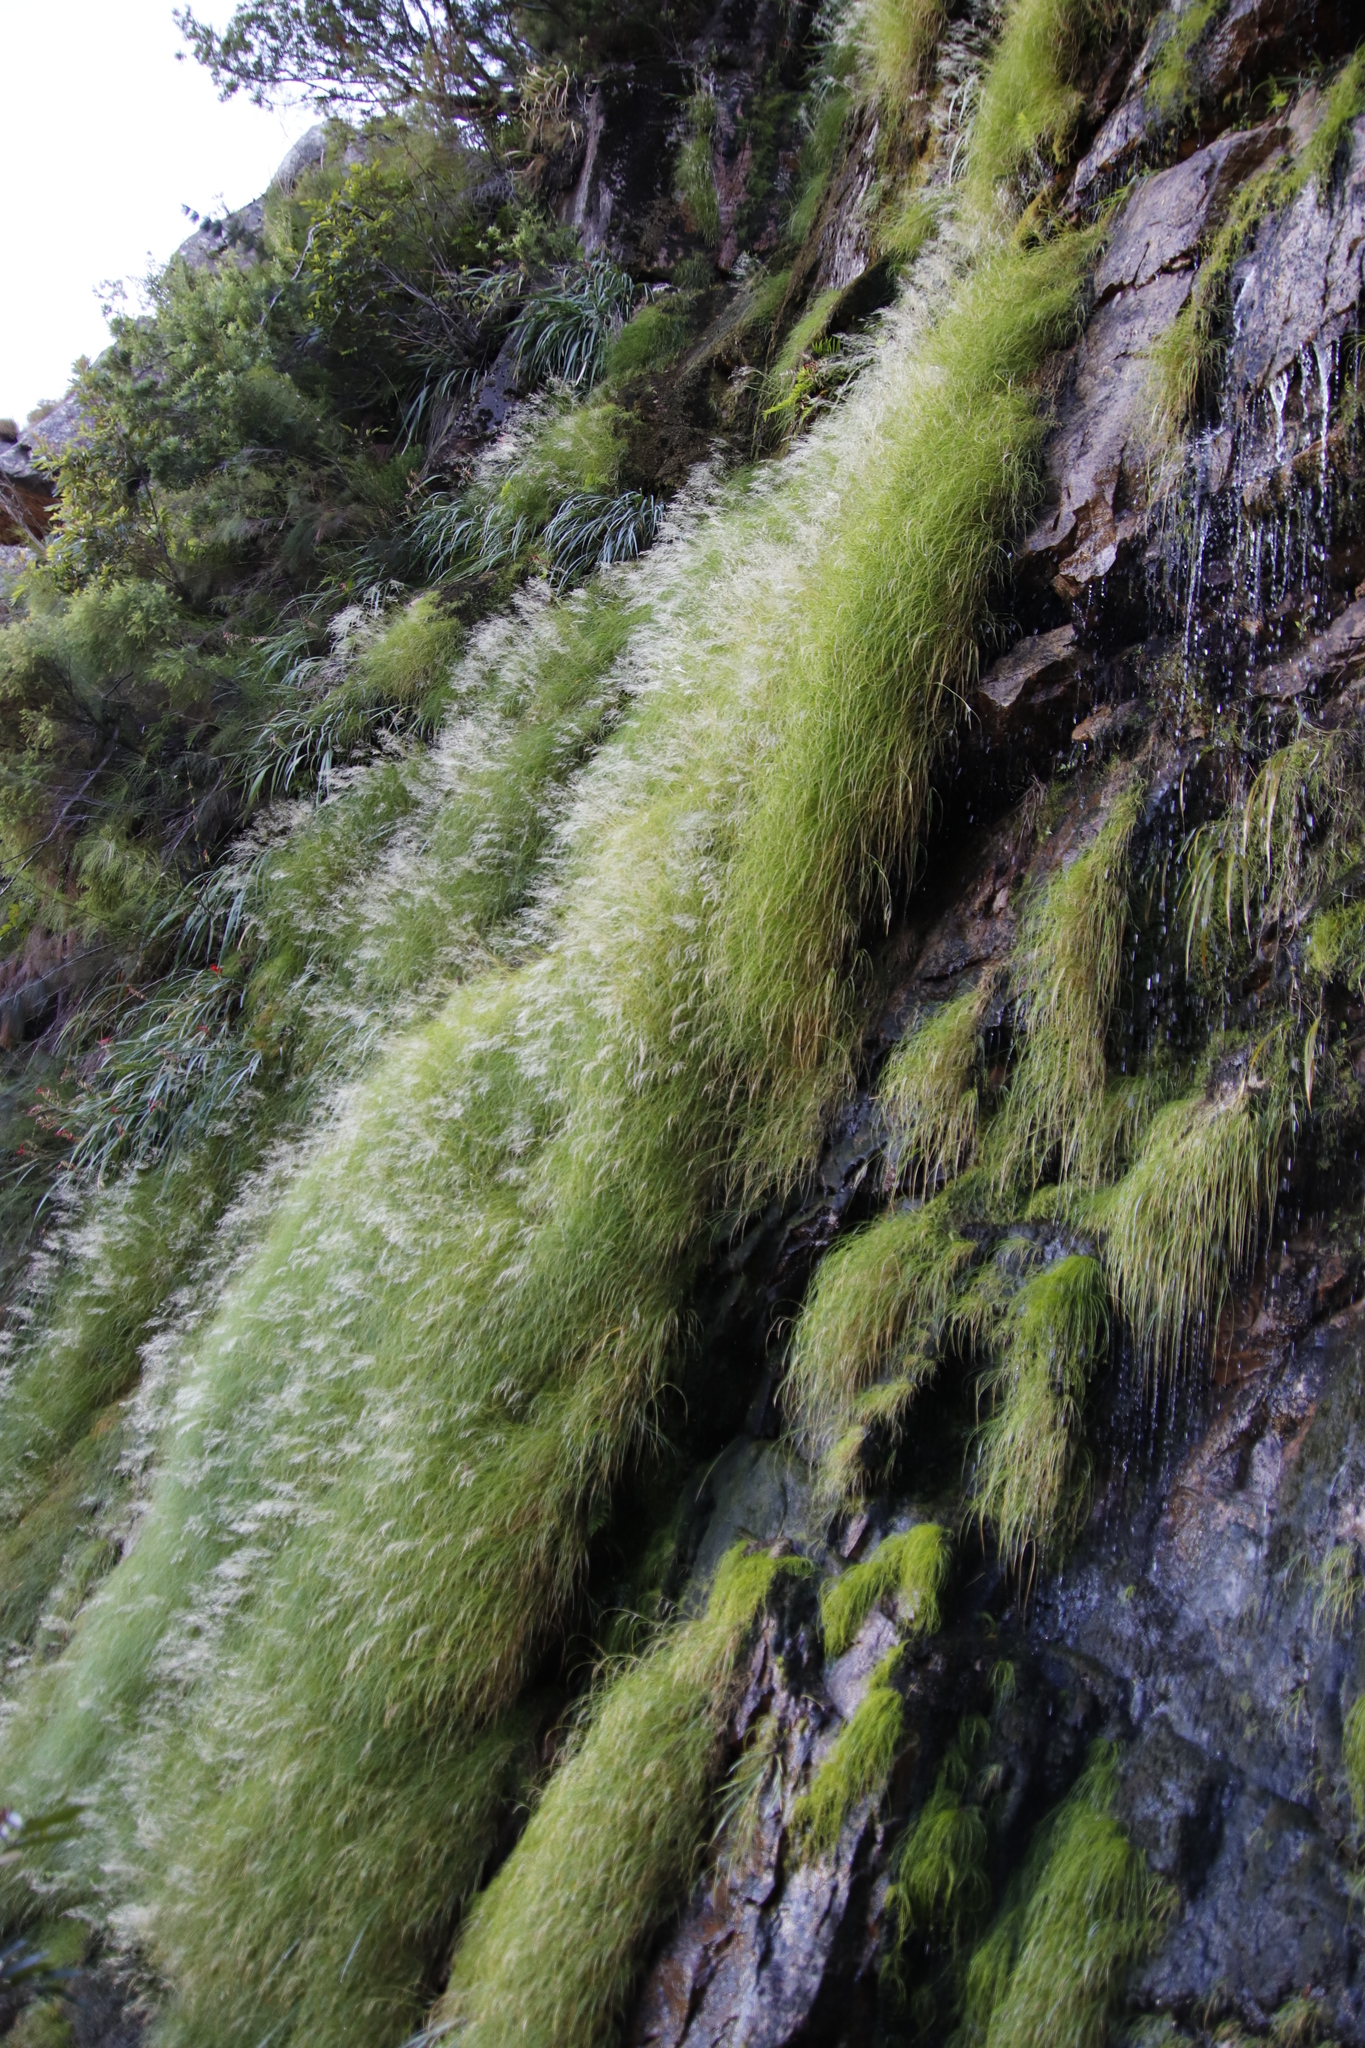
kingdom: Plantae
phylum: Tracheophyta
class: Liliopsida
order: Poales
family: Poaceae
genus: Pentameris
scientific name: Pentameris capensis
